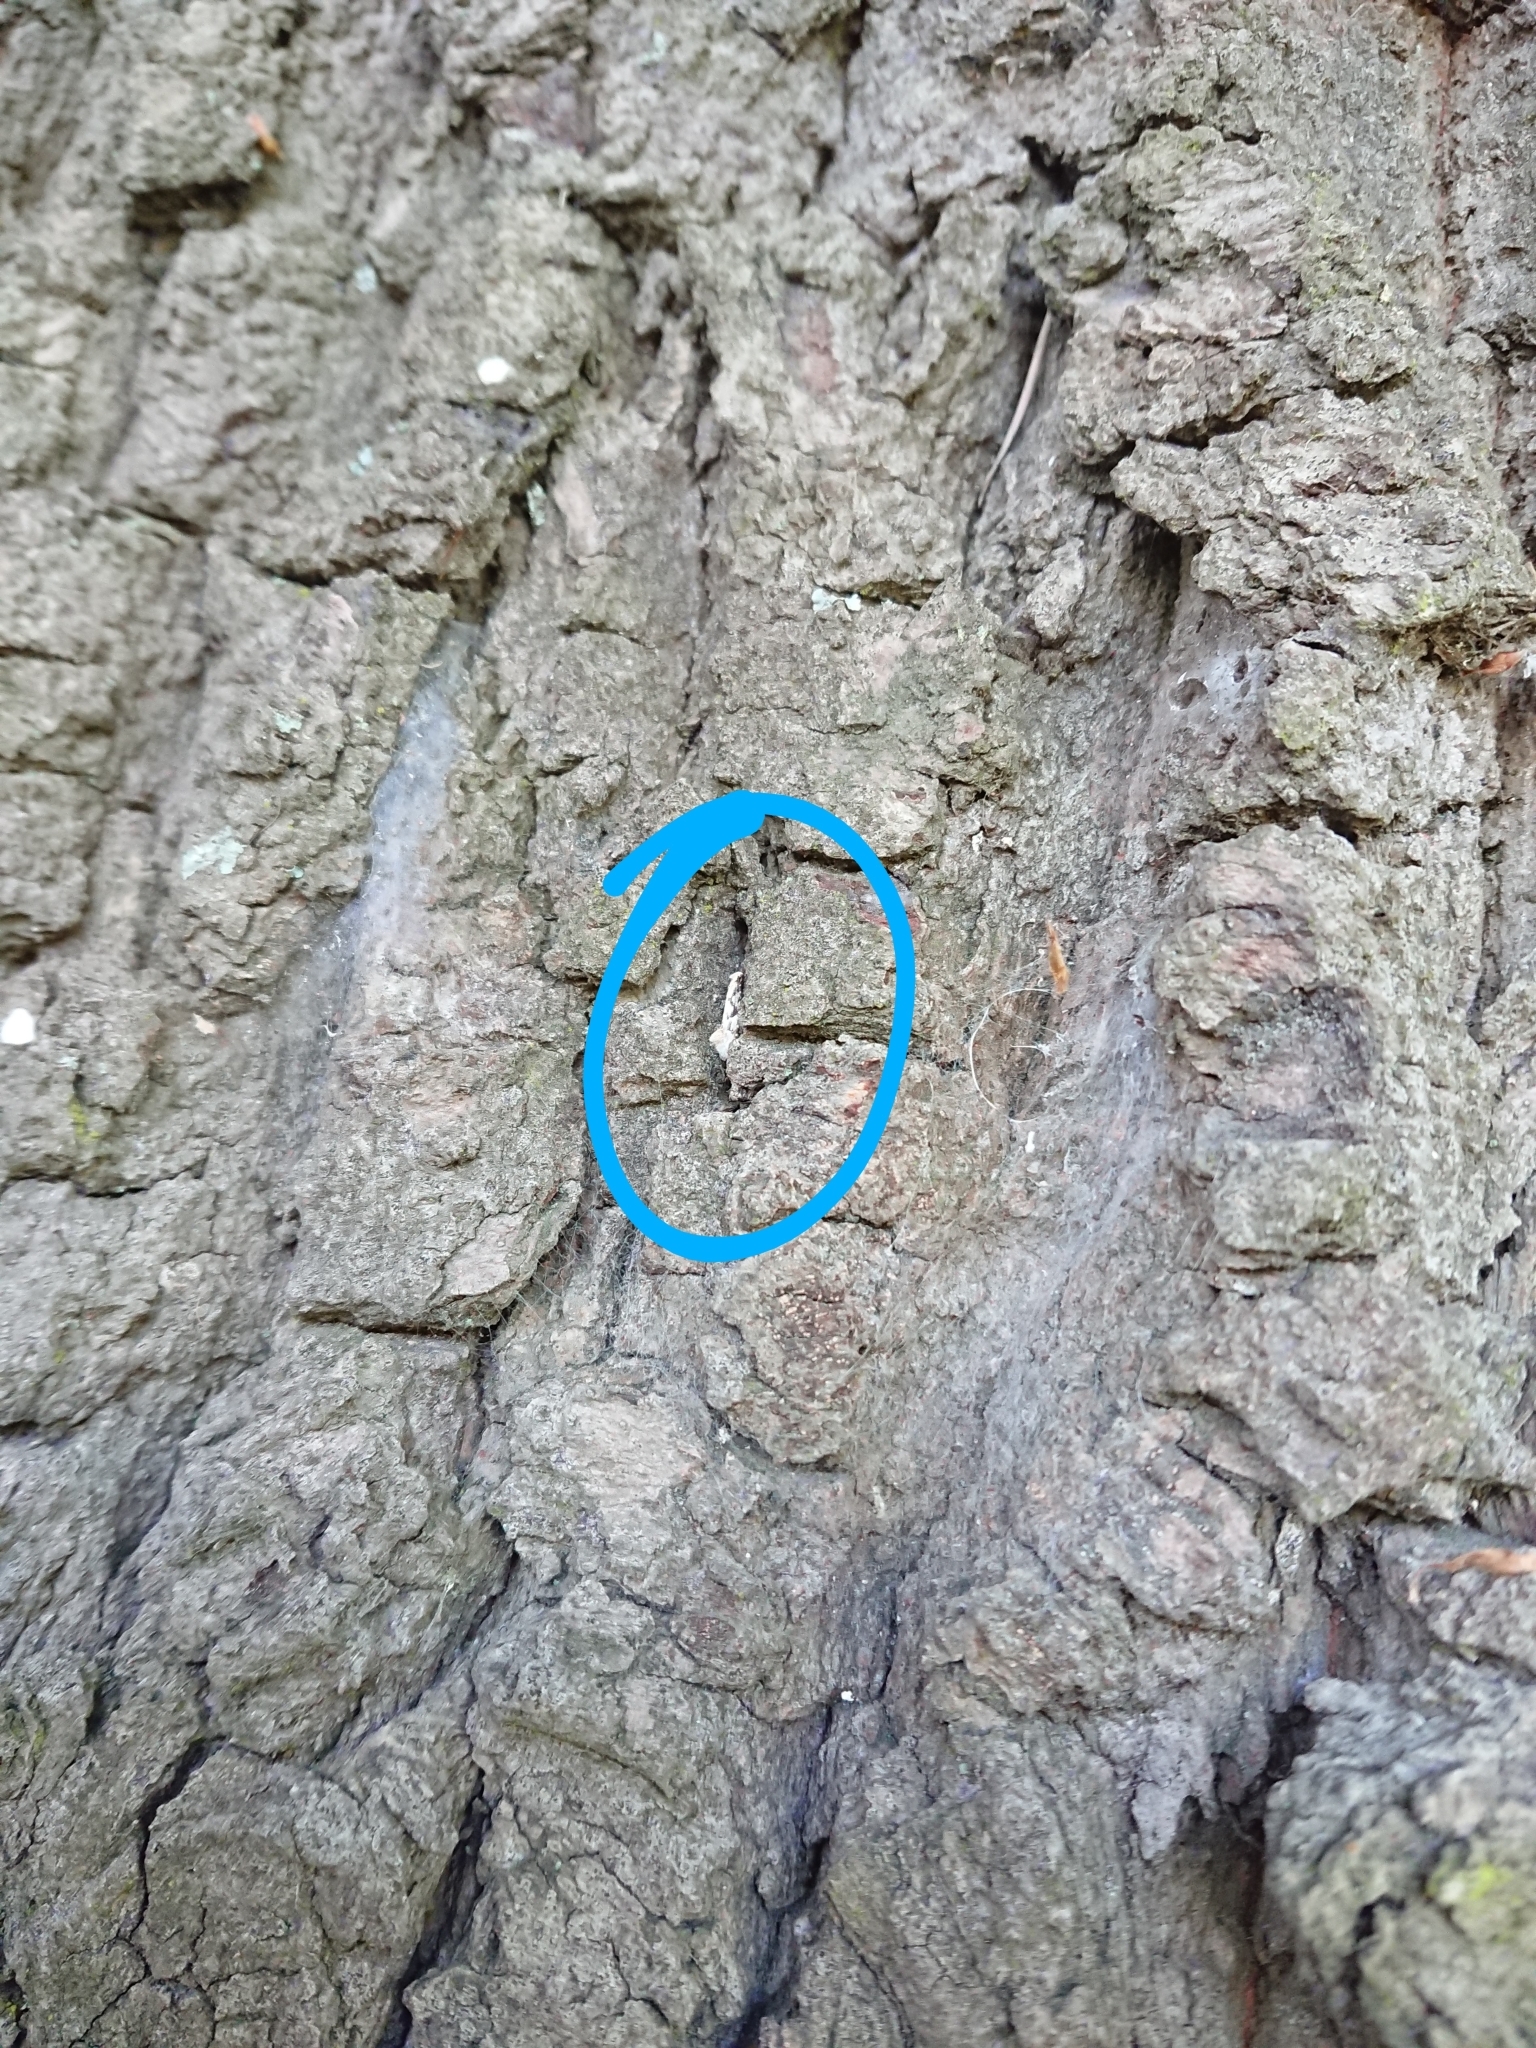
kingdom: Animalia
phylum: Arthropoda
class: Insecta
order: Lepidoptera
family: Tineidae
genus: Crypsitricha
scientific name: Crypsitricha mesotypa
